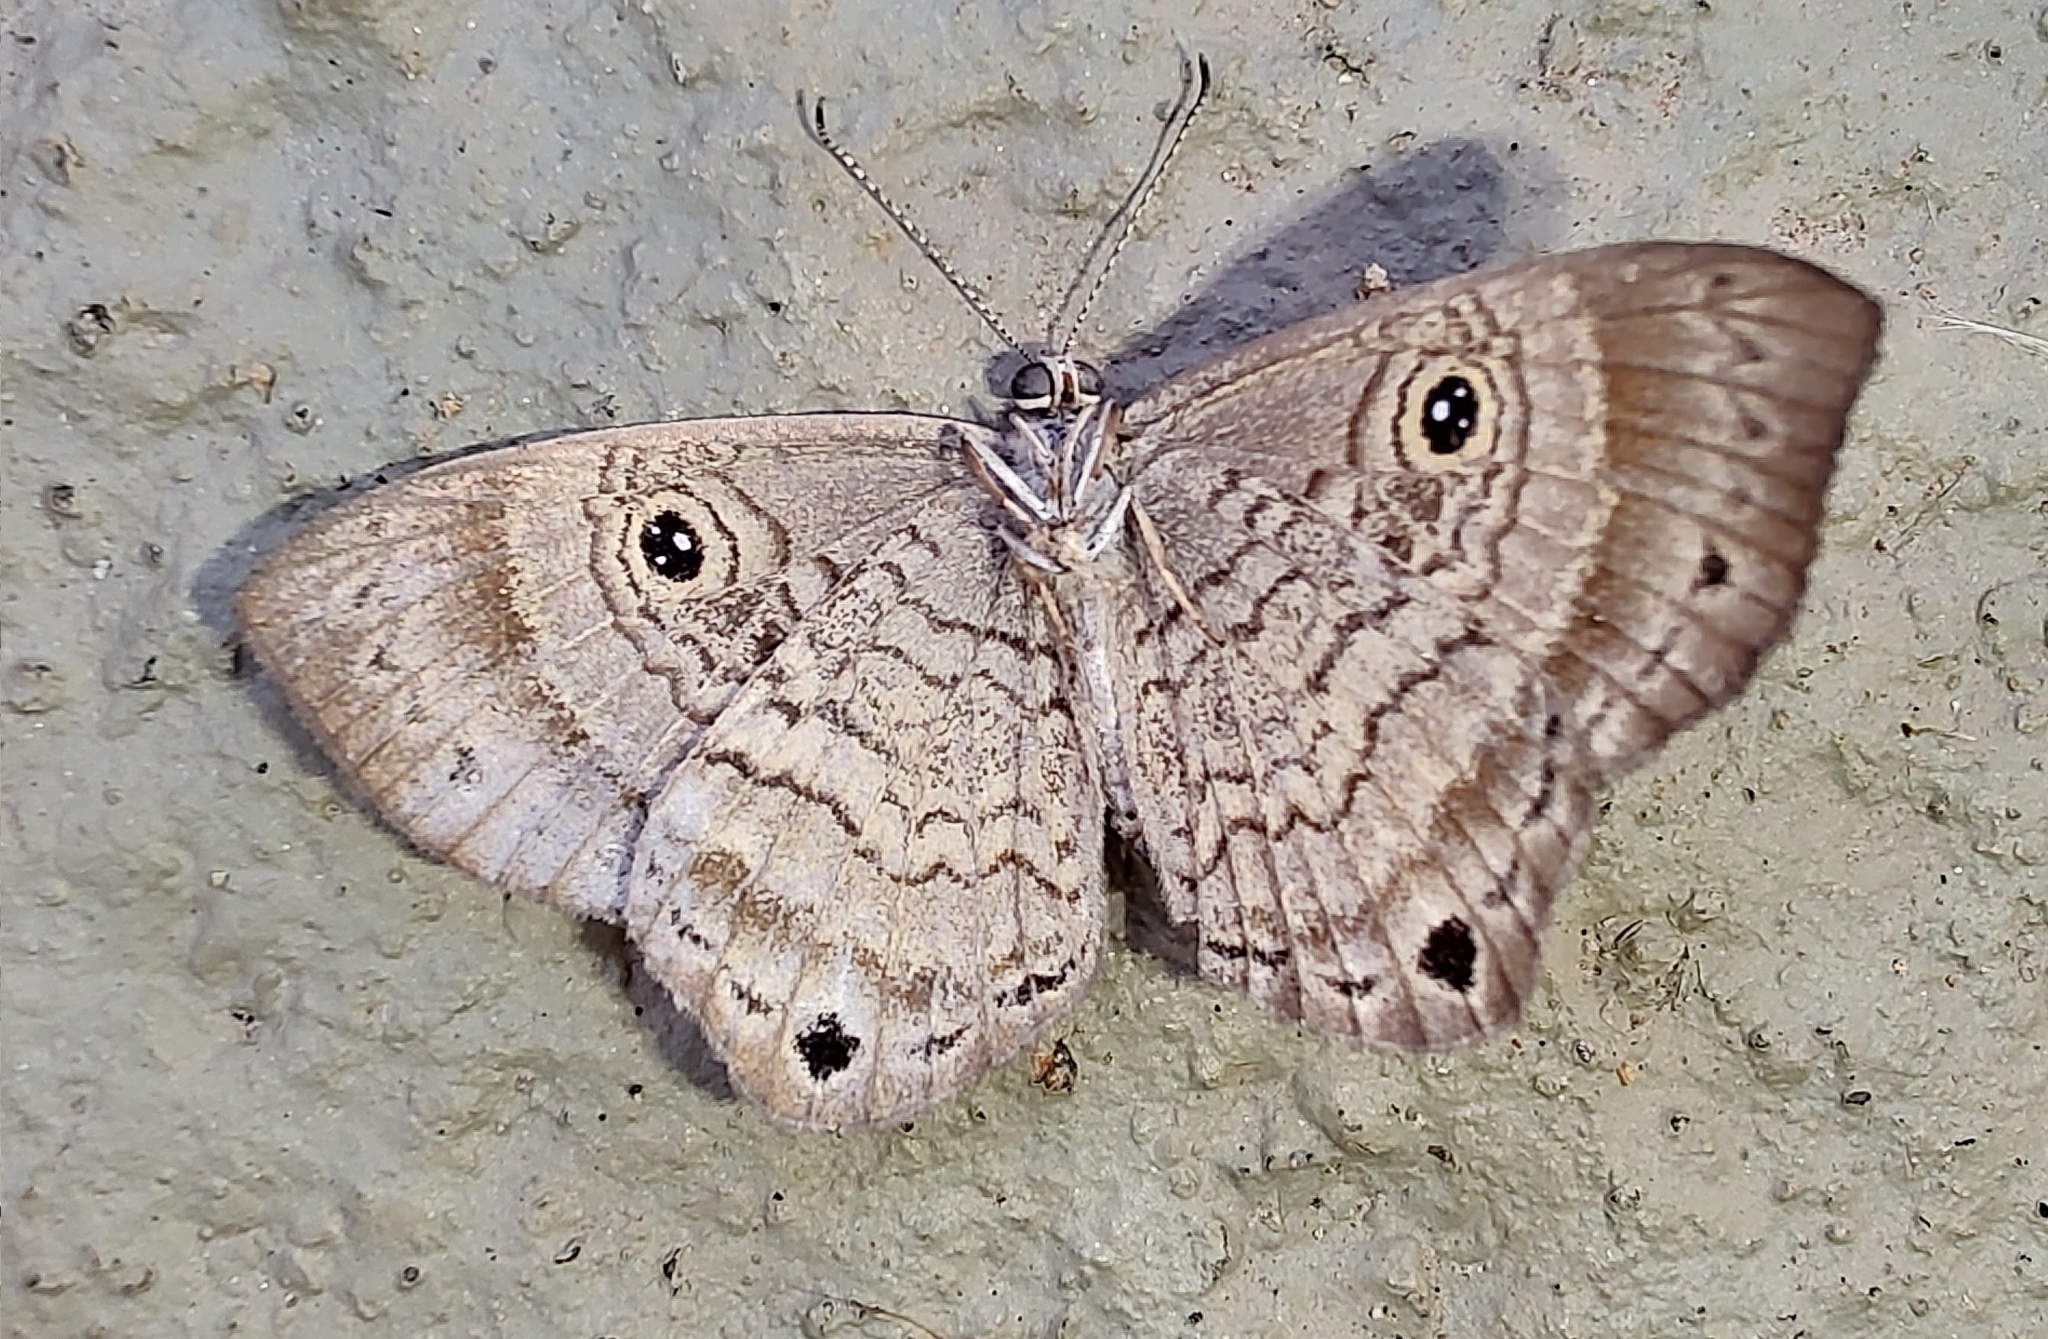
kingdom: Animalia
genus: Mesosemia
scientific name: Mesosemia odice
